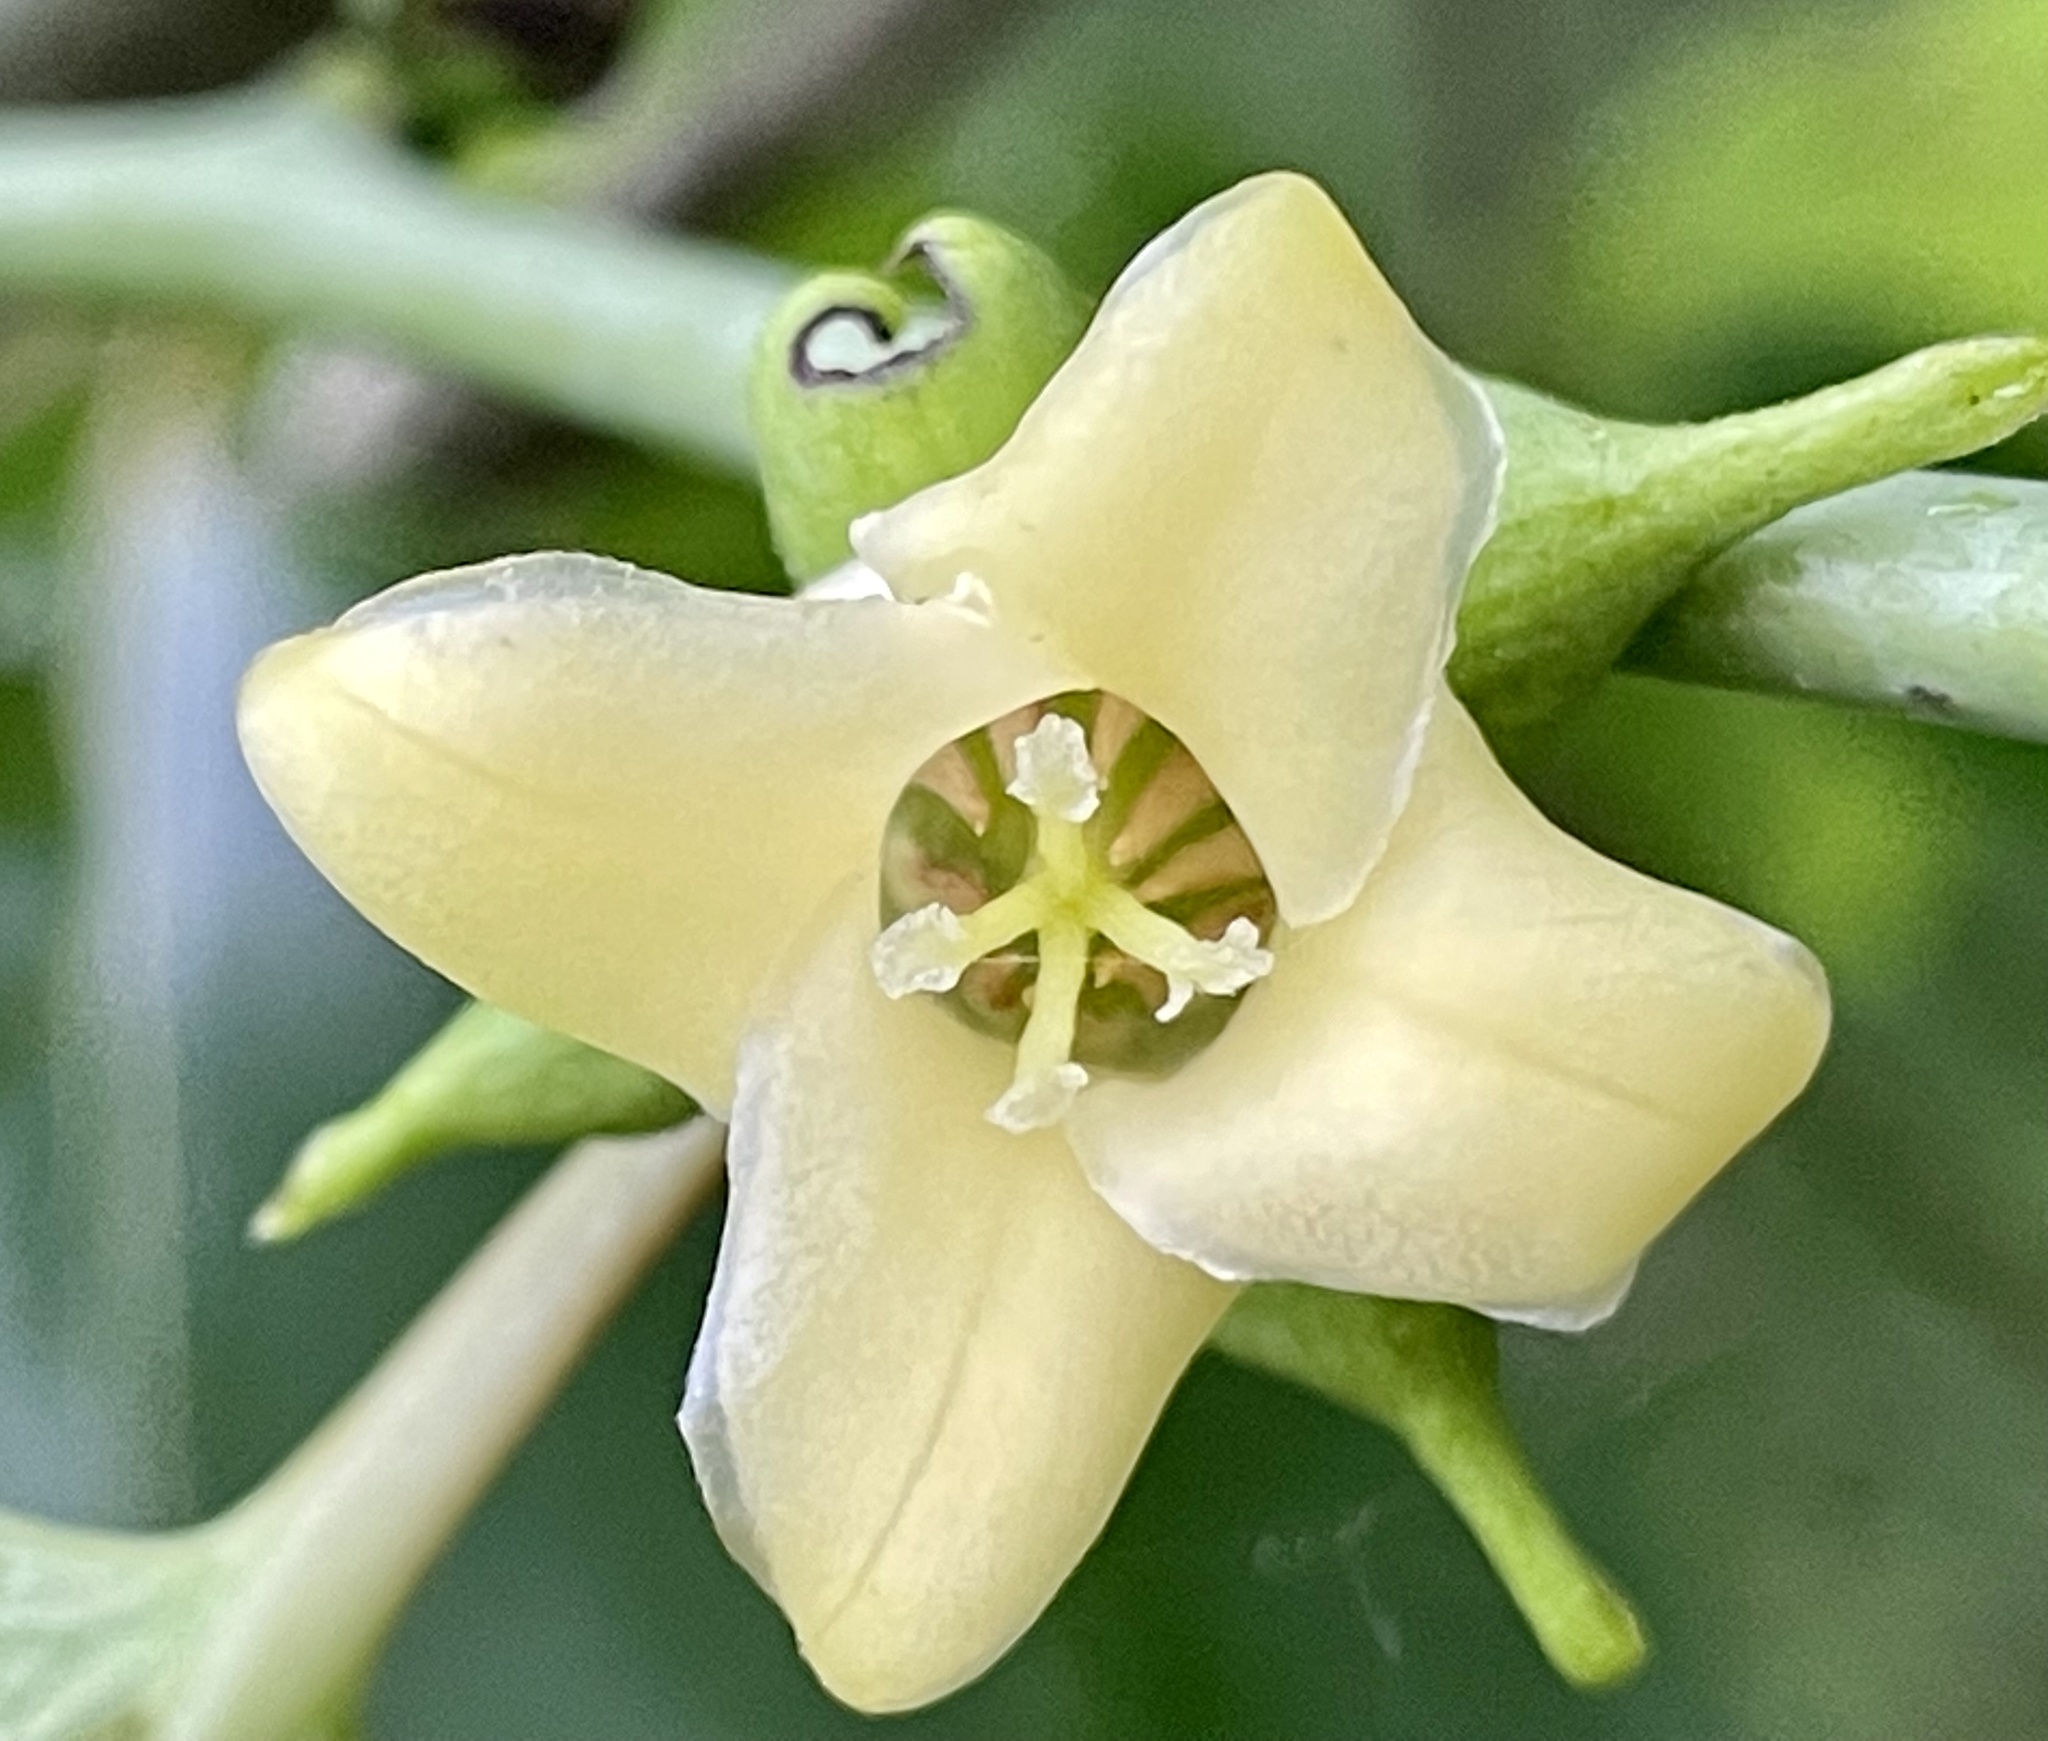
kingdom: Plantae
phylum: Tracheophyta
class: Magnoliopsida
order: Ericales
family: Ebenaceae
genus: Diospyros
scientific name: Diospyros virginiana
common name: Persimmon
